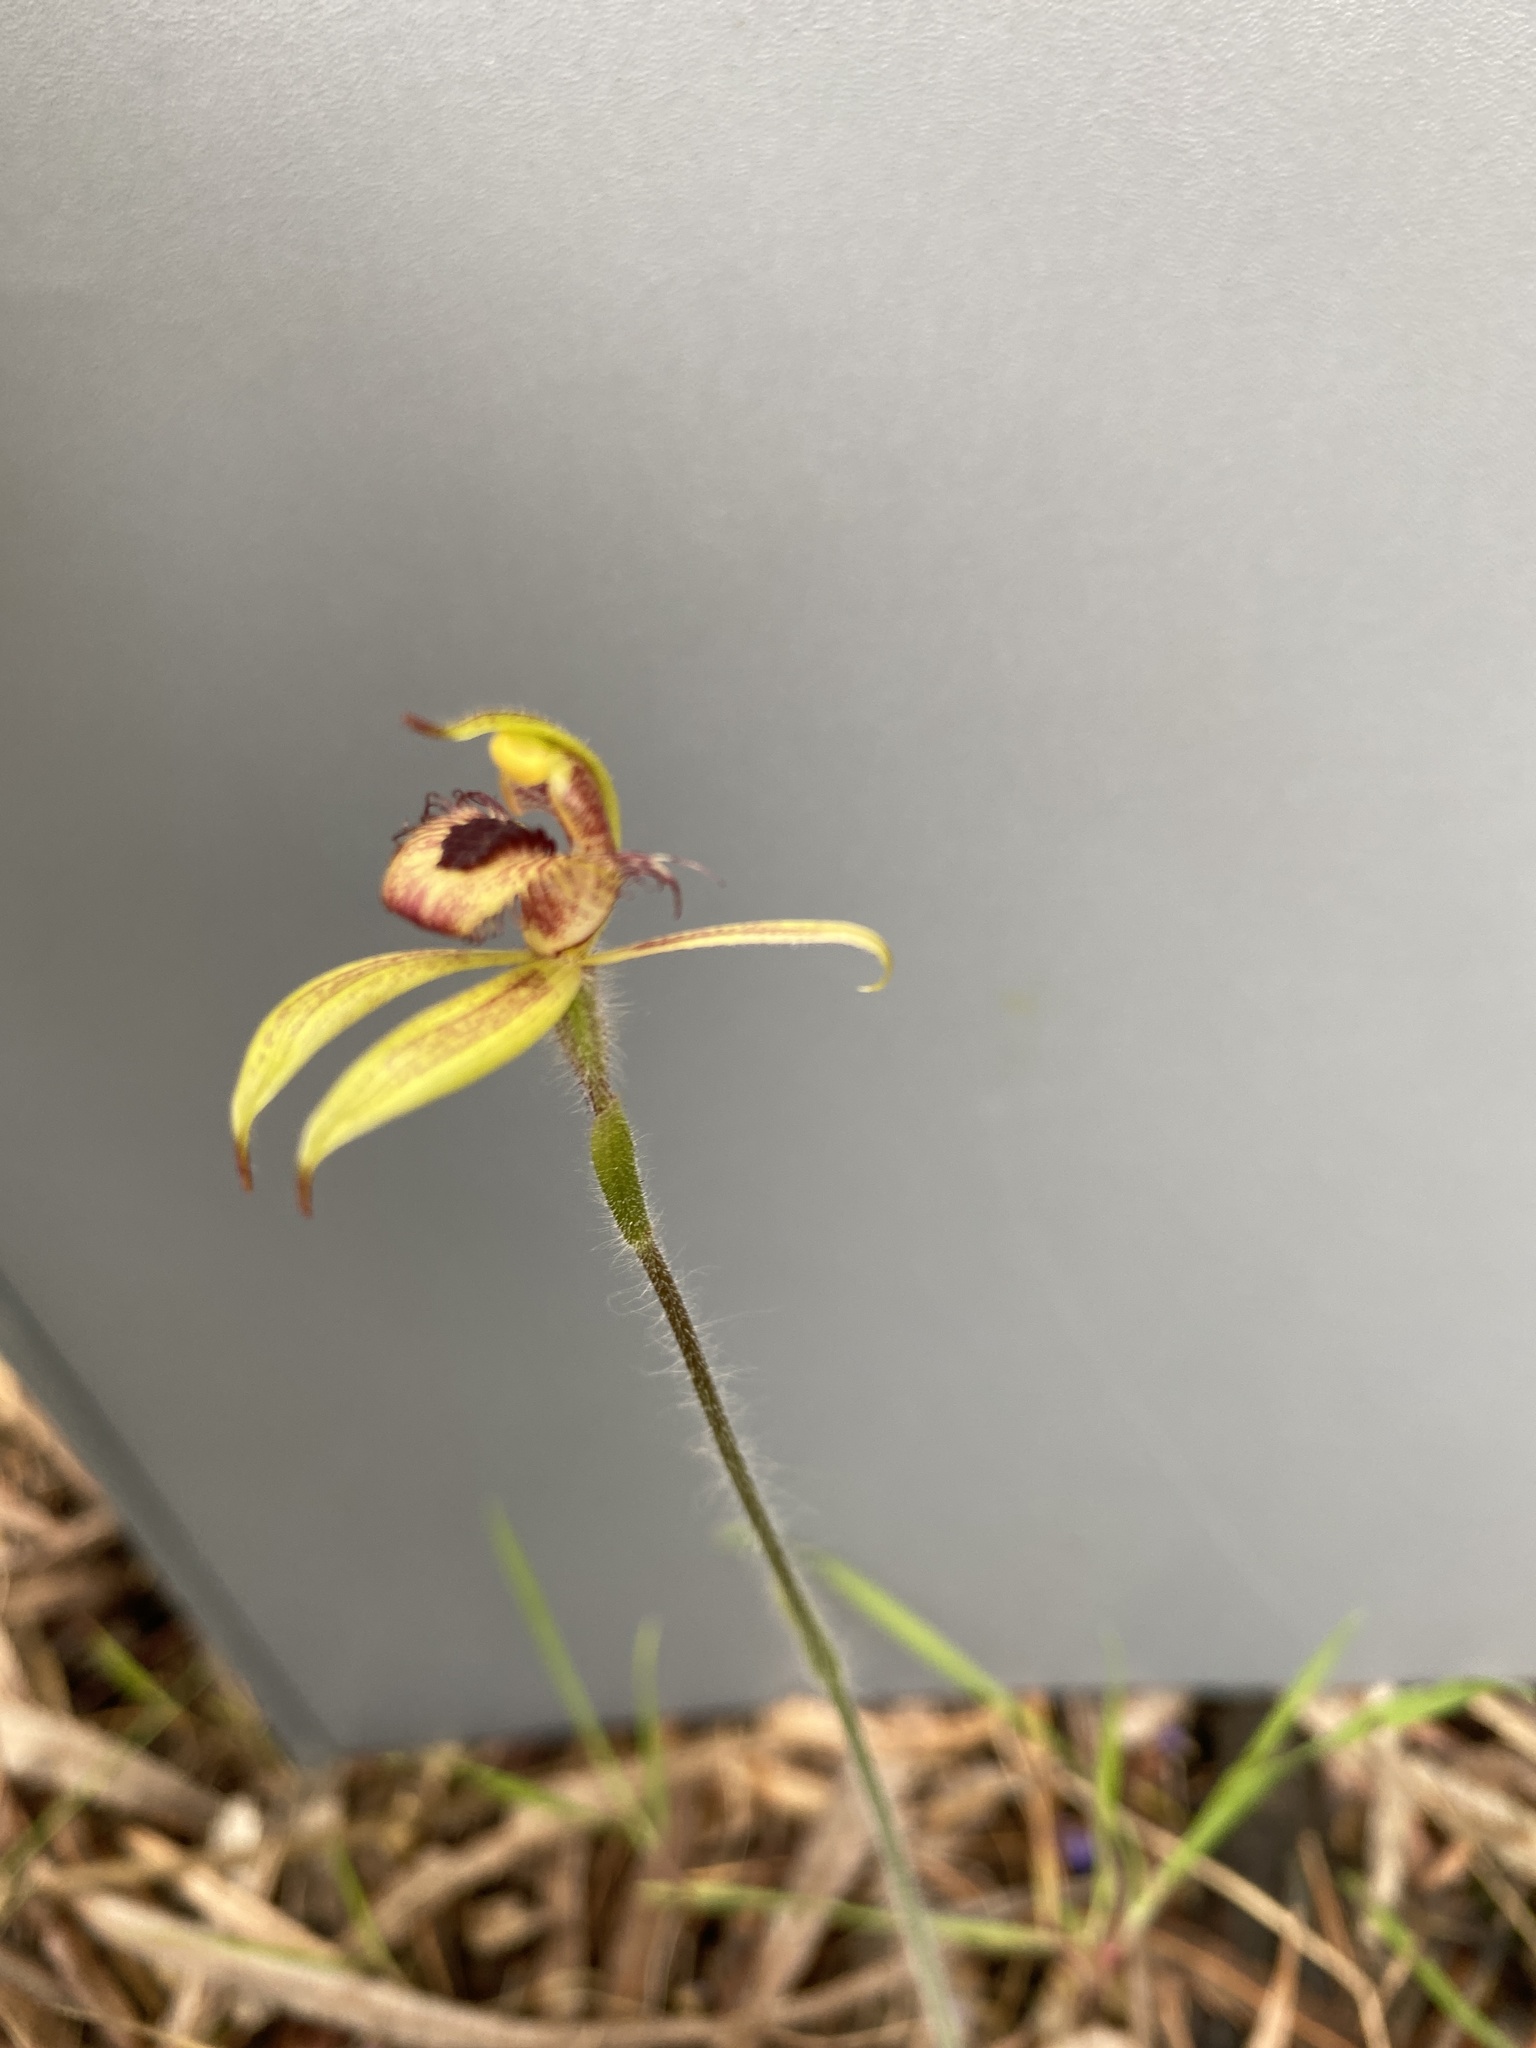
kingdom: Plantae
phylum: Tracheophyta
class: Liliopsida
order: Asparagales
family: Orchidaceae
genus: Caladenia
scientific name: Caladenia discoidea
